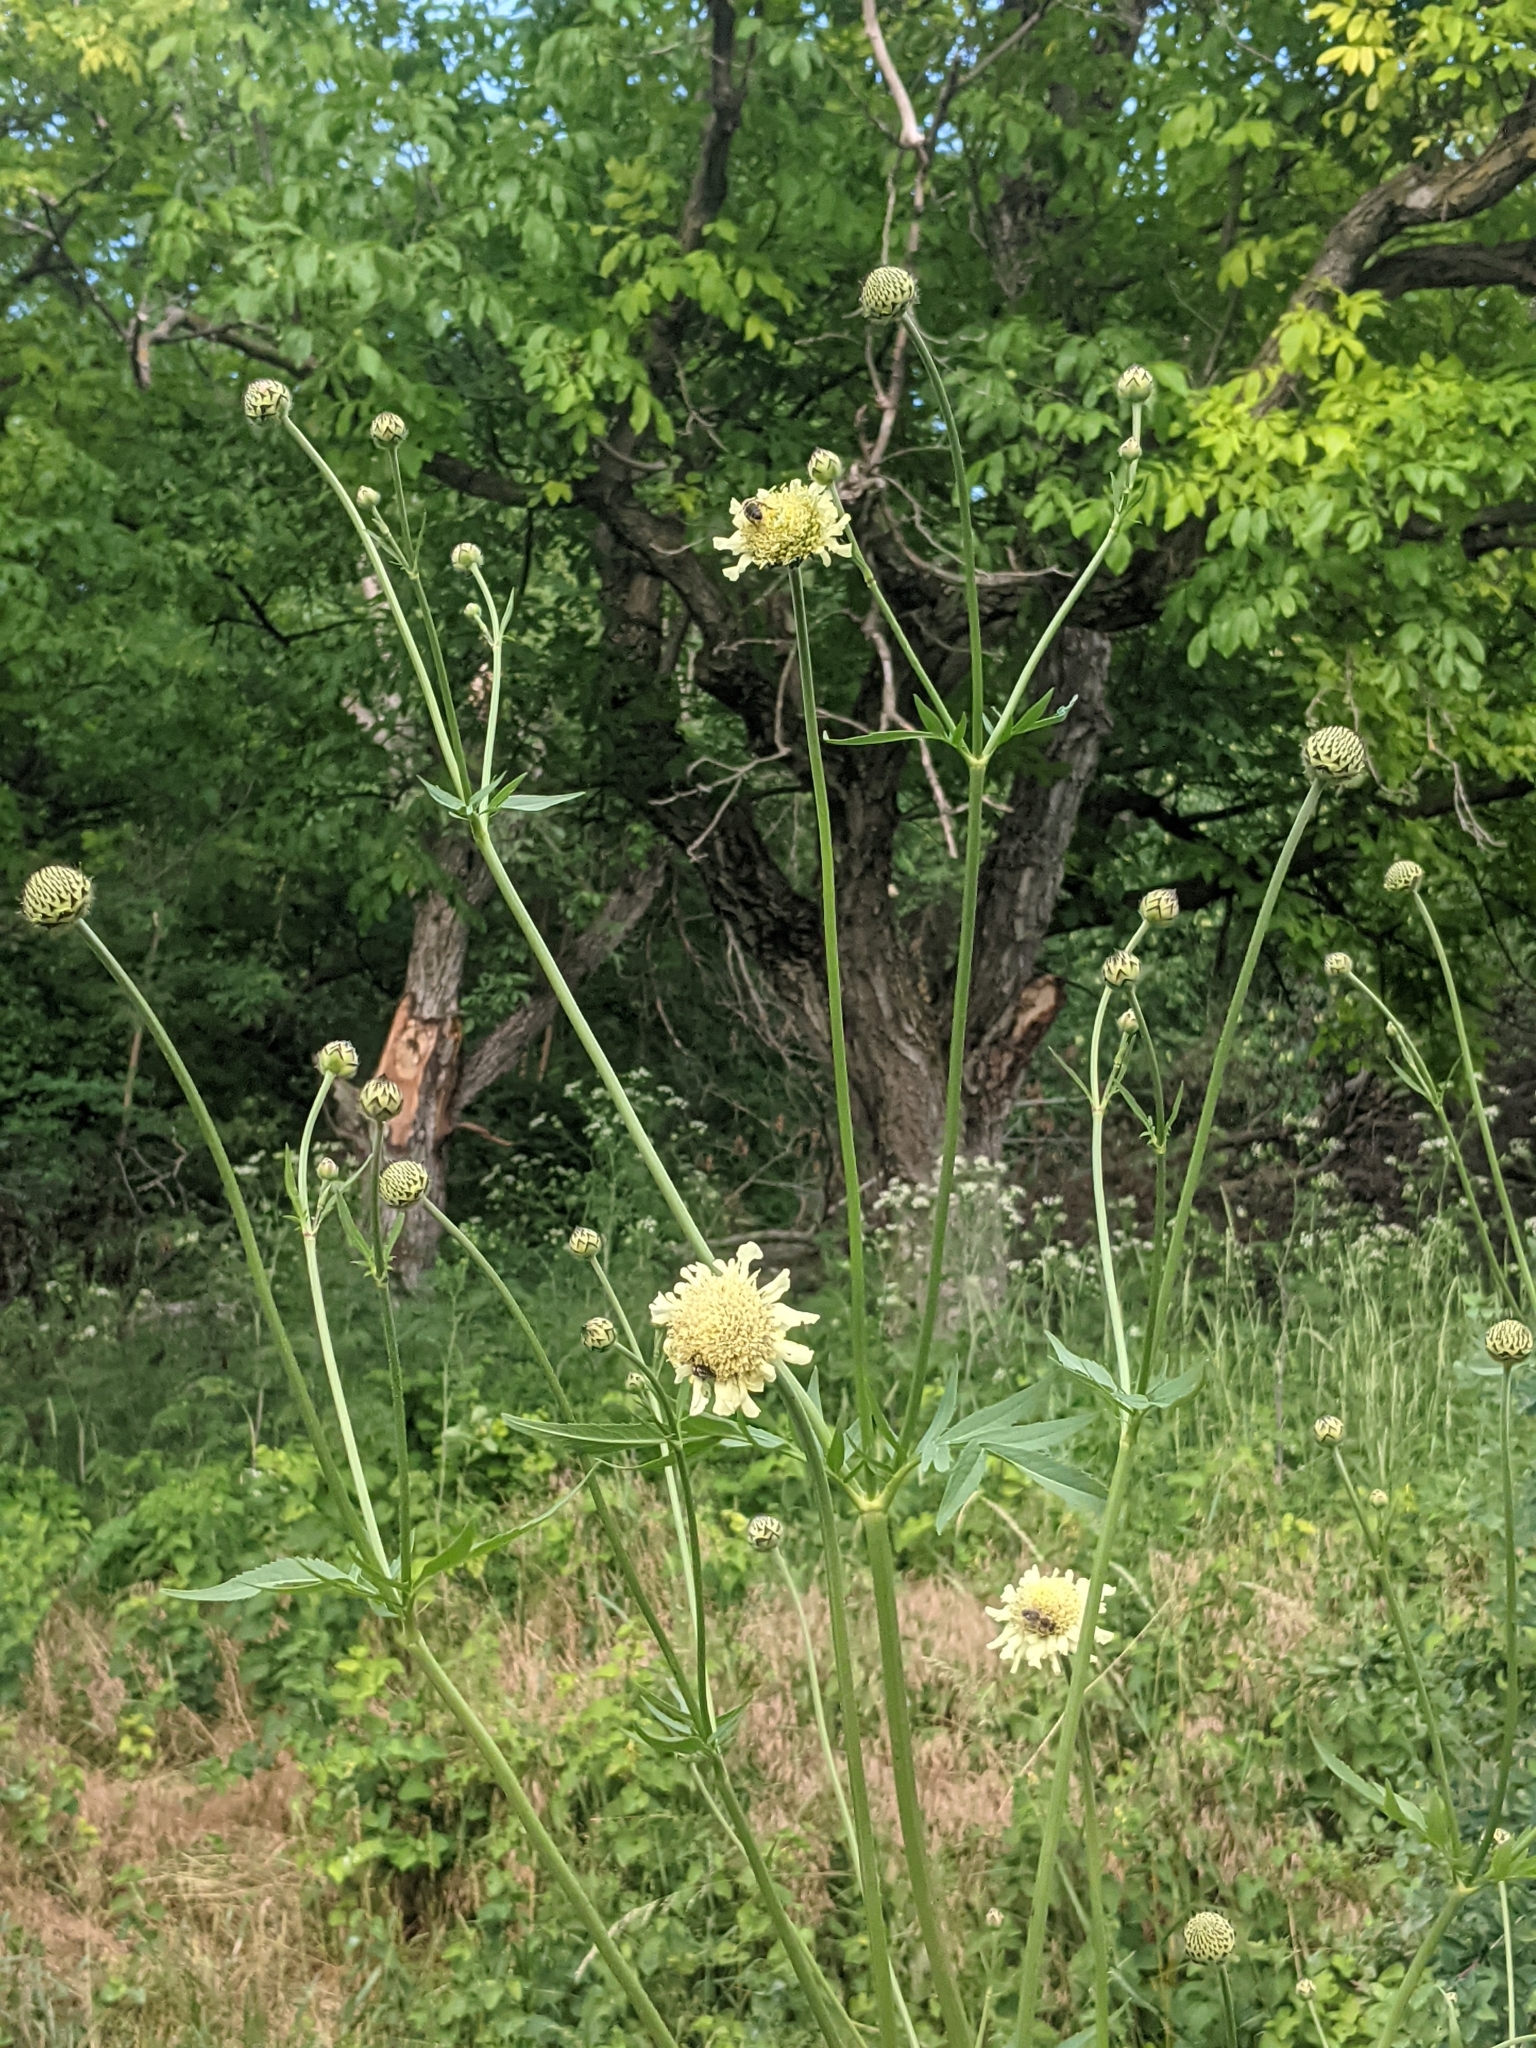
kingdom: Plantae
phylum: Tracheophyta
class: Magnoliopsida
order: Dipsacales
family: Caprifoliaceae
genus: Cephalaria
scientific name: Cephalaria uralensis
